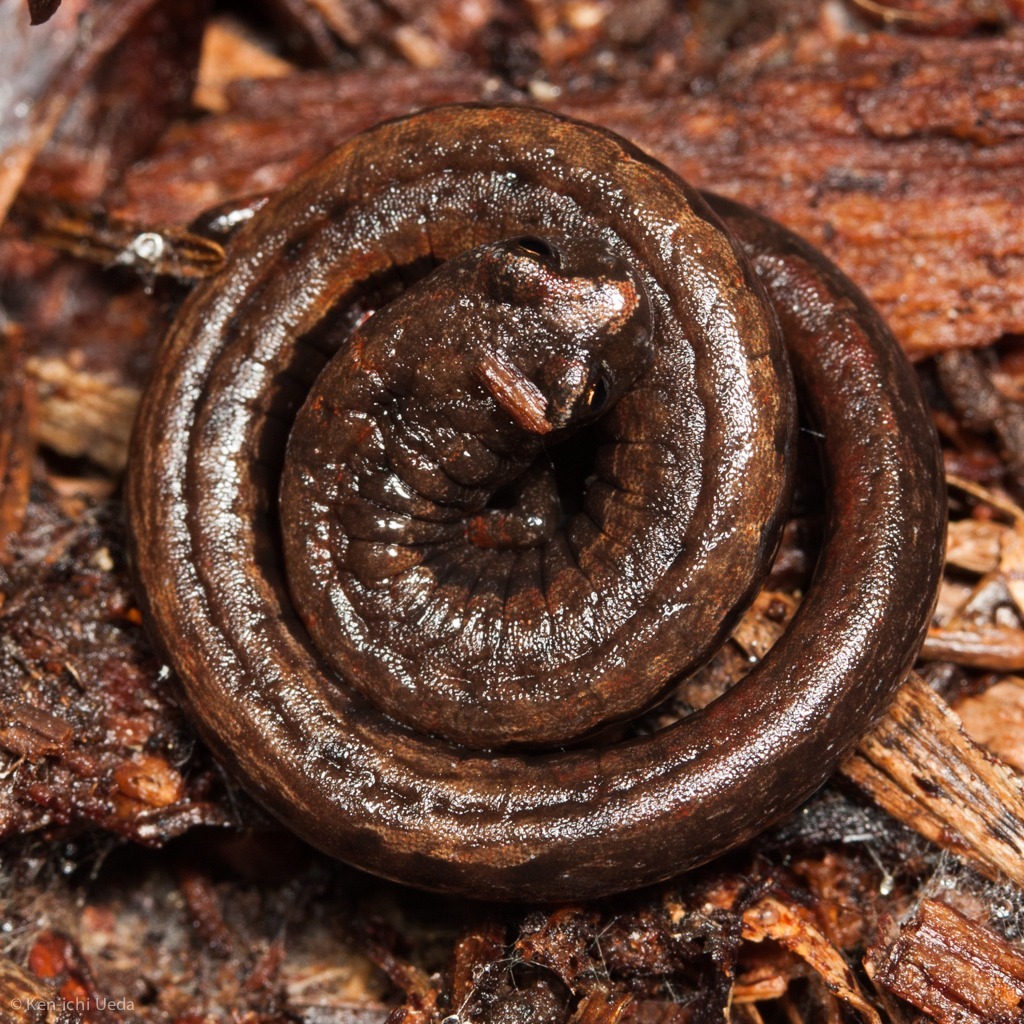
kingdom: Animalia
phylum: Chordata
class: Amphibia
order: Caudata
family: Plethodontidae
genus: Batrachoseps
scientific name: Batrachoseps attenuatus
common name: California slender salamander
